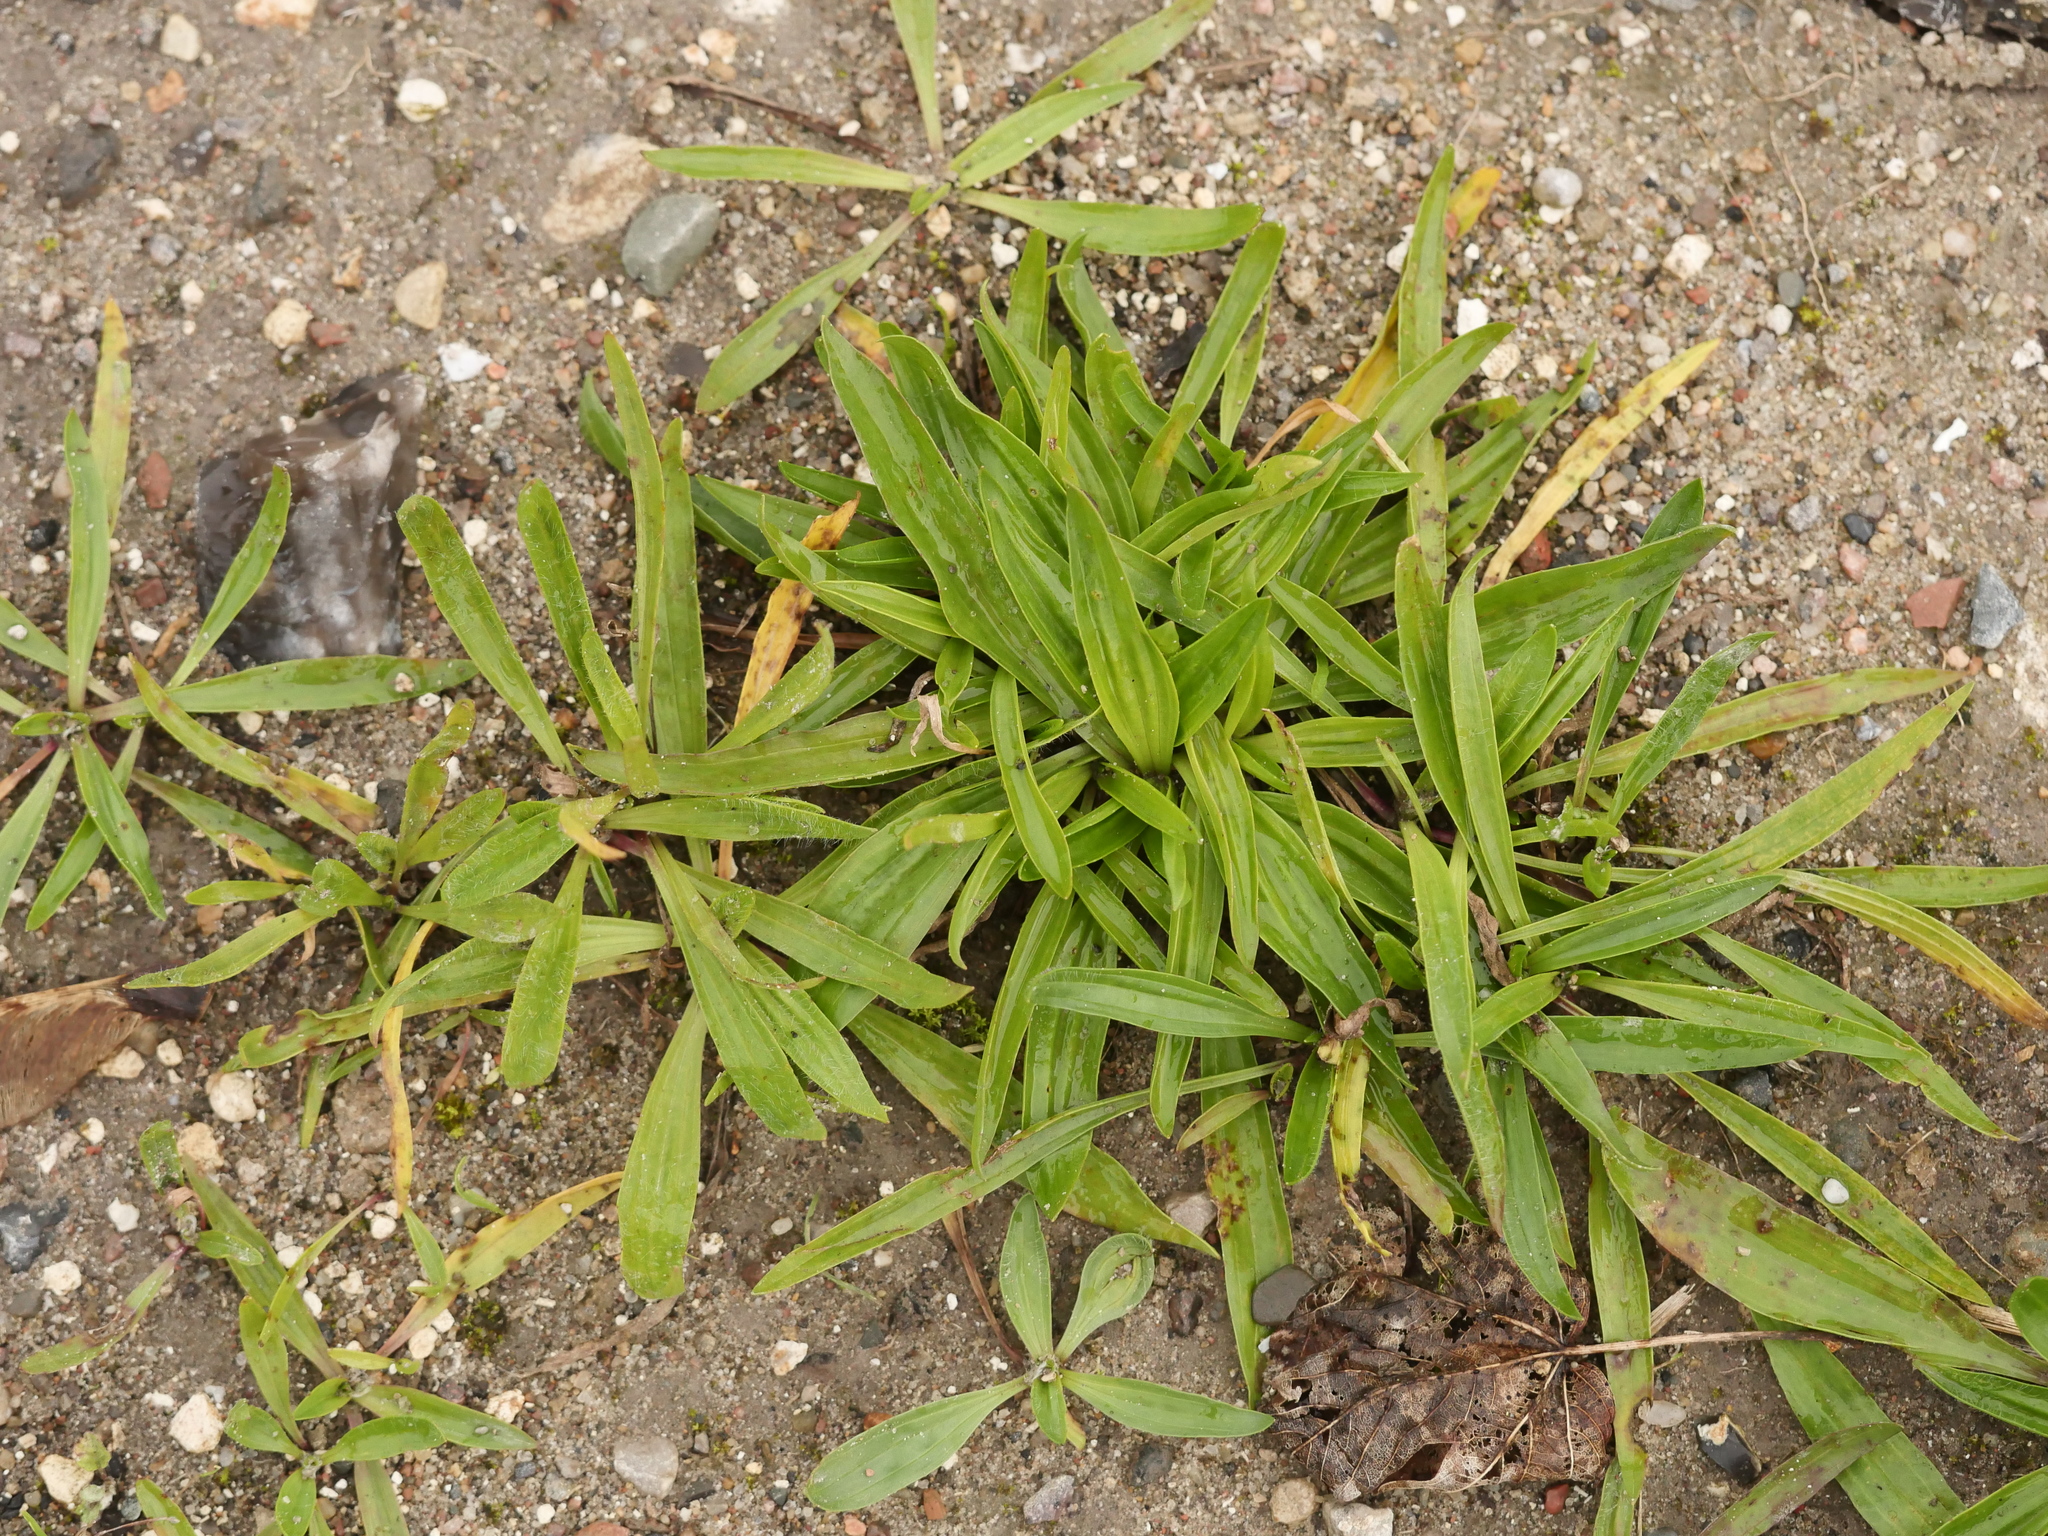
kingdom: Plantae
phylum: Tracheophyta
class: Magnoliopsida
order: Lamiales
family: Plantaginaceae
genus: Plantago
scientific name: Plantago lanceolata
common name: Ribwort plantain
